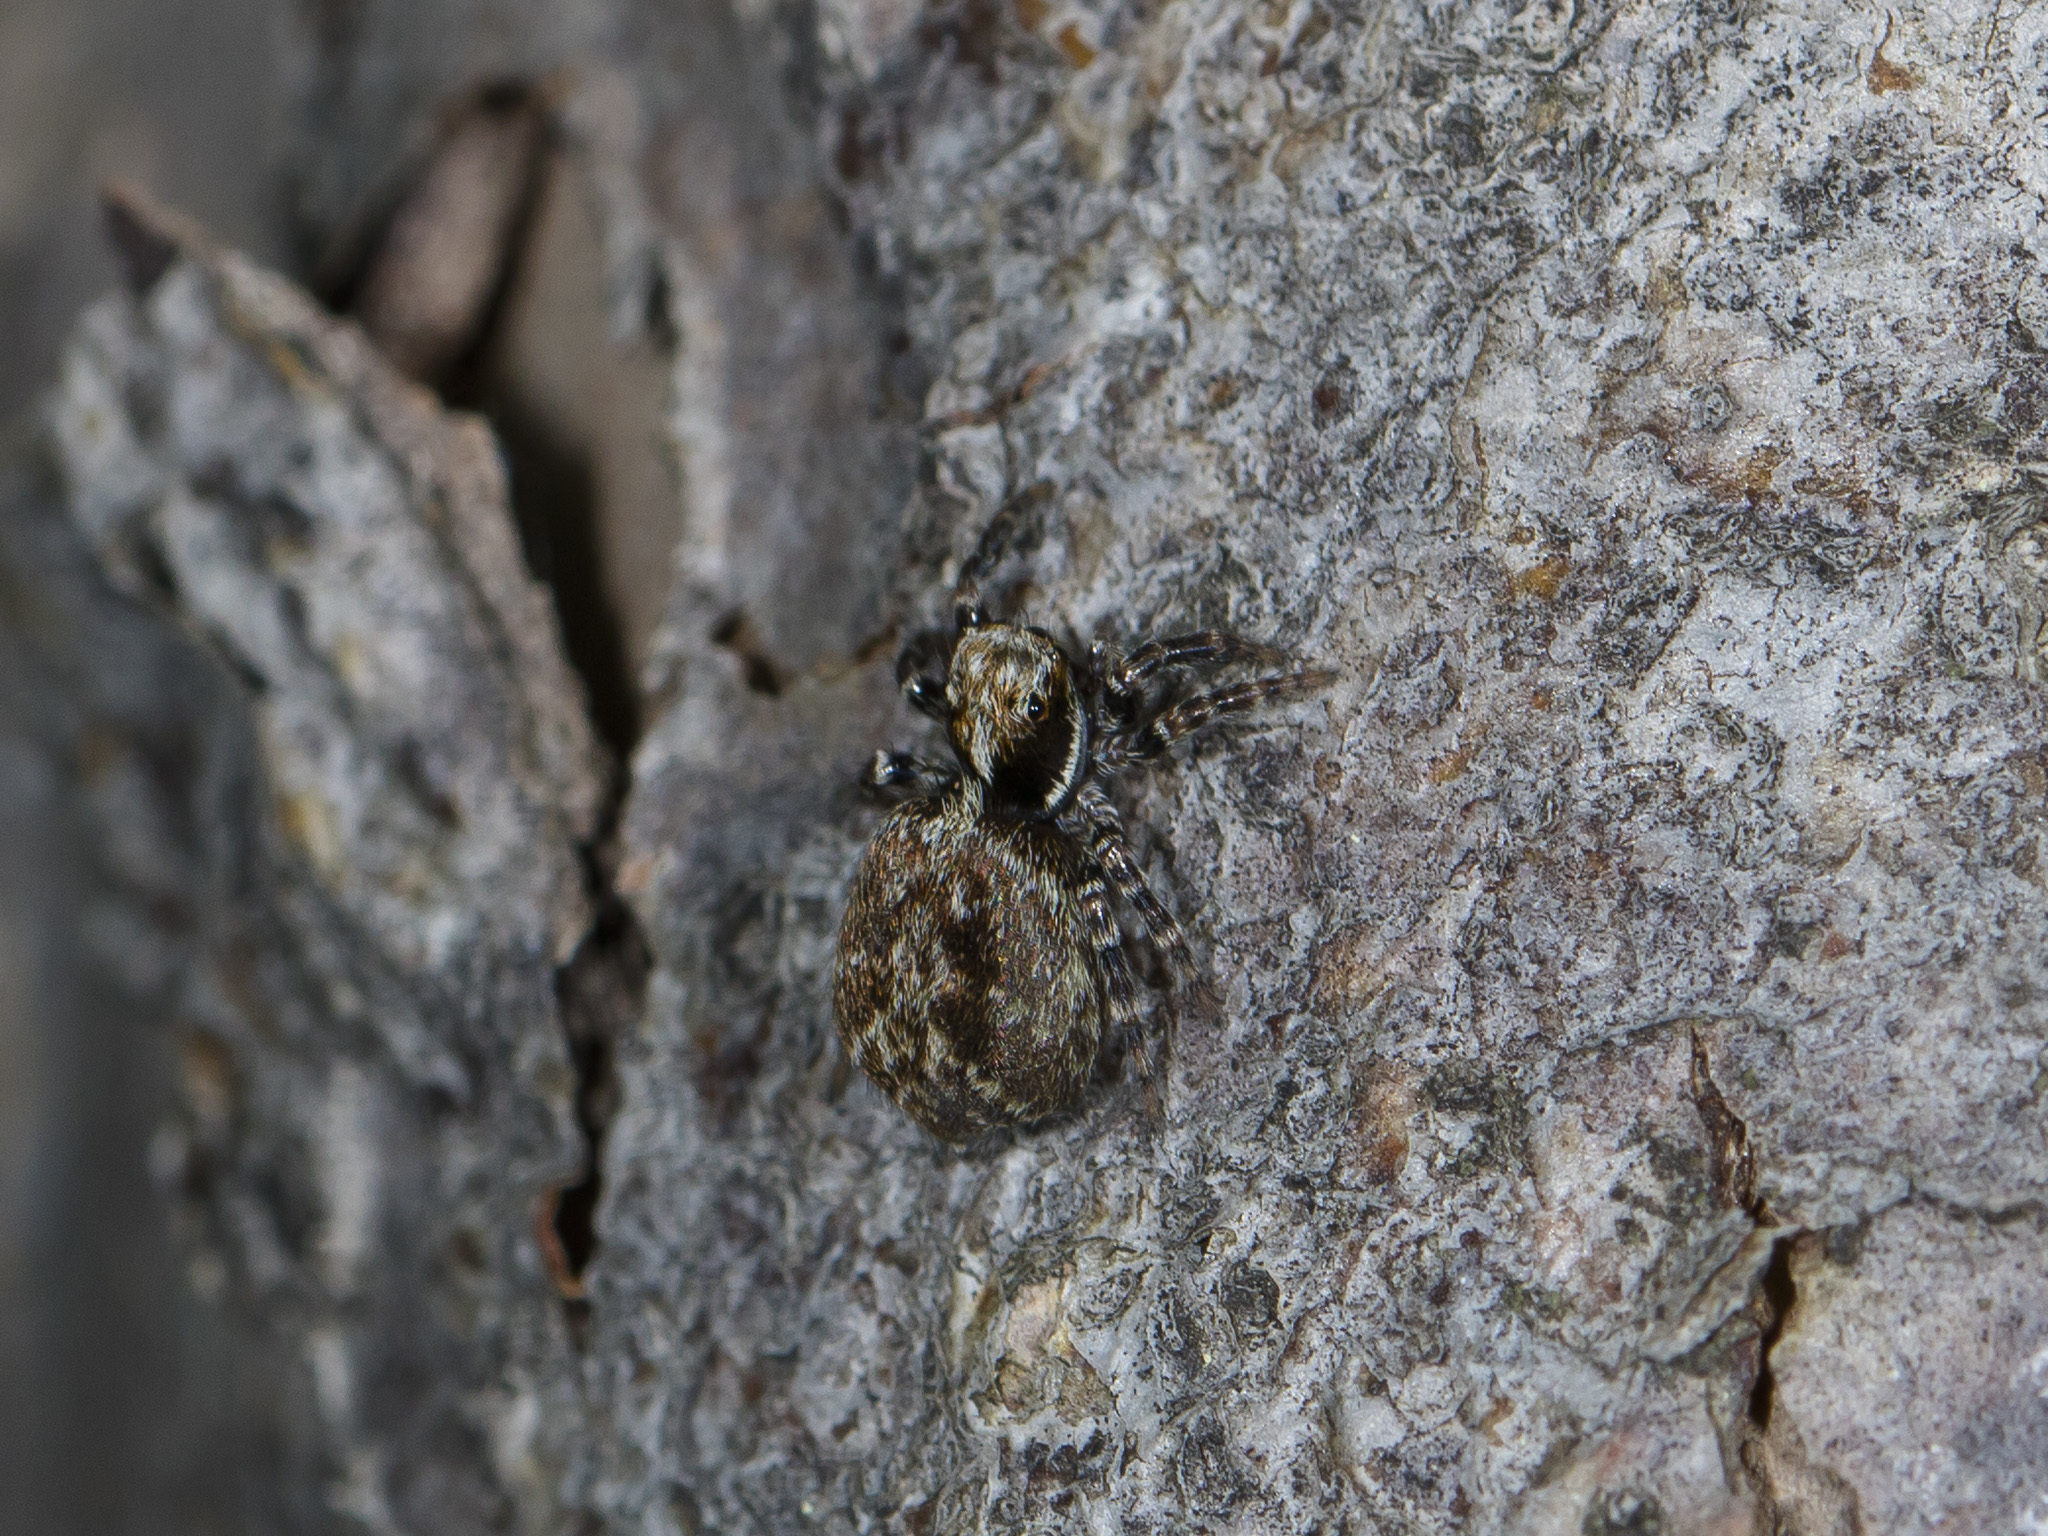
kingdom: Animalia
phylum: Arthropoda
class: Arachnida
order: Araneae
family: Salticidae
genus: Pseudeuophrys
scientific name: Pseudeuophrys obsoleta
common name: Whelk-shell jumper
